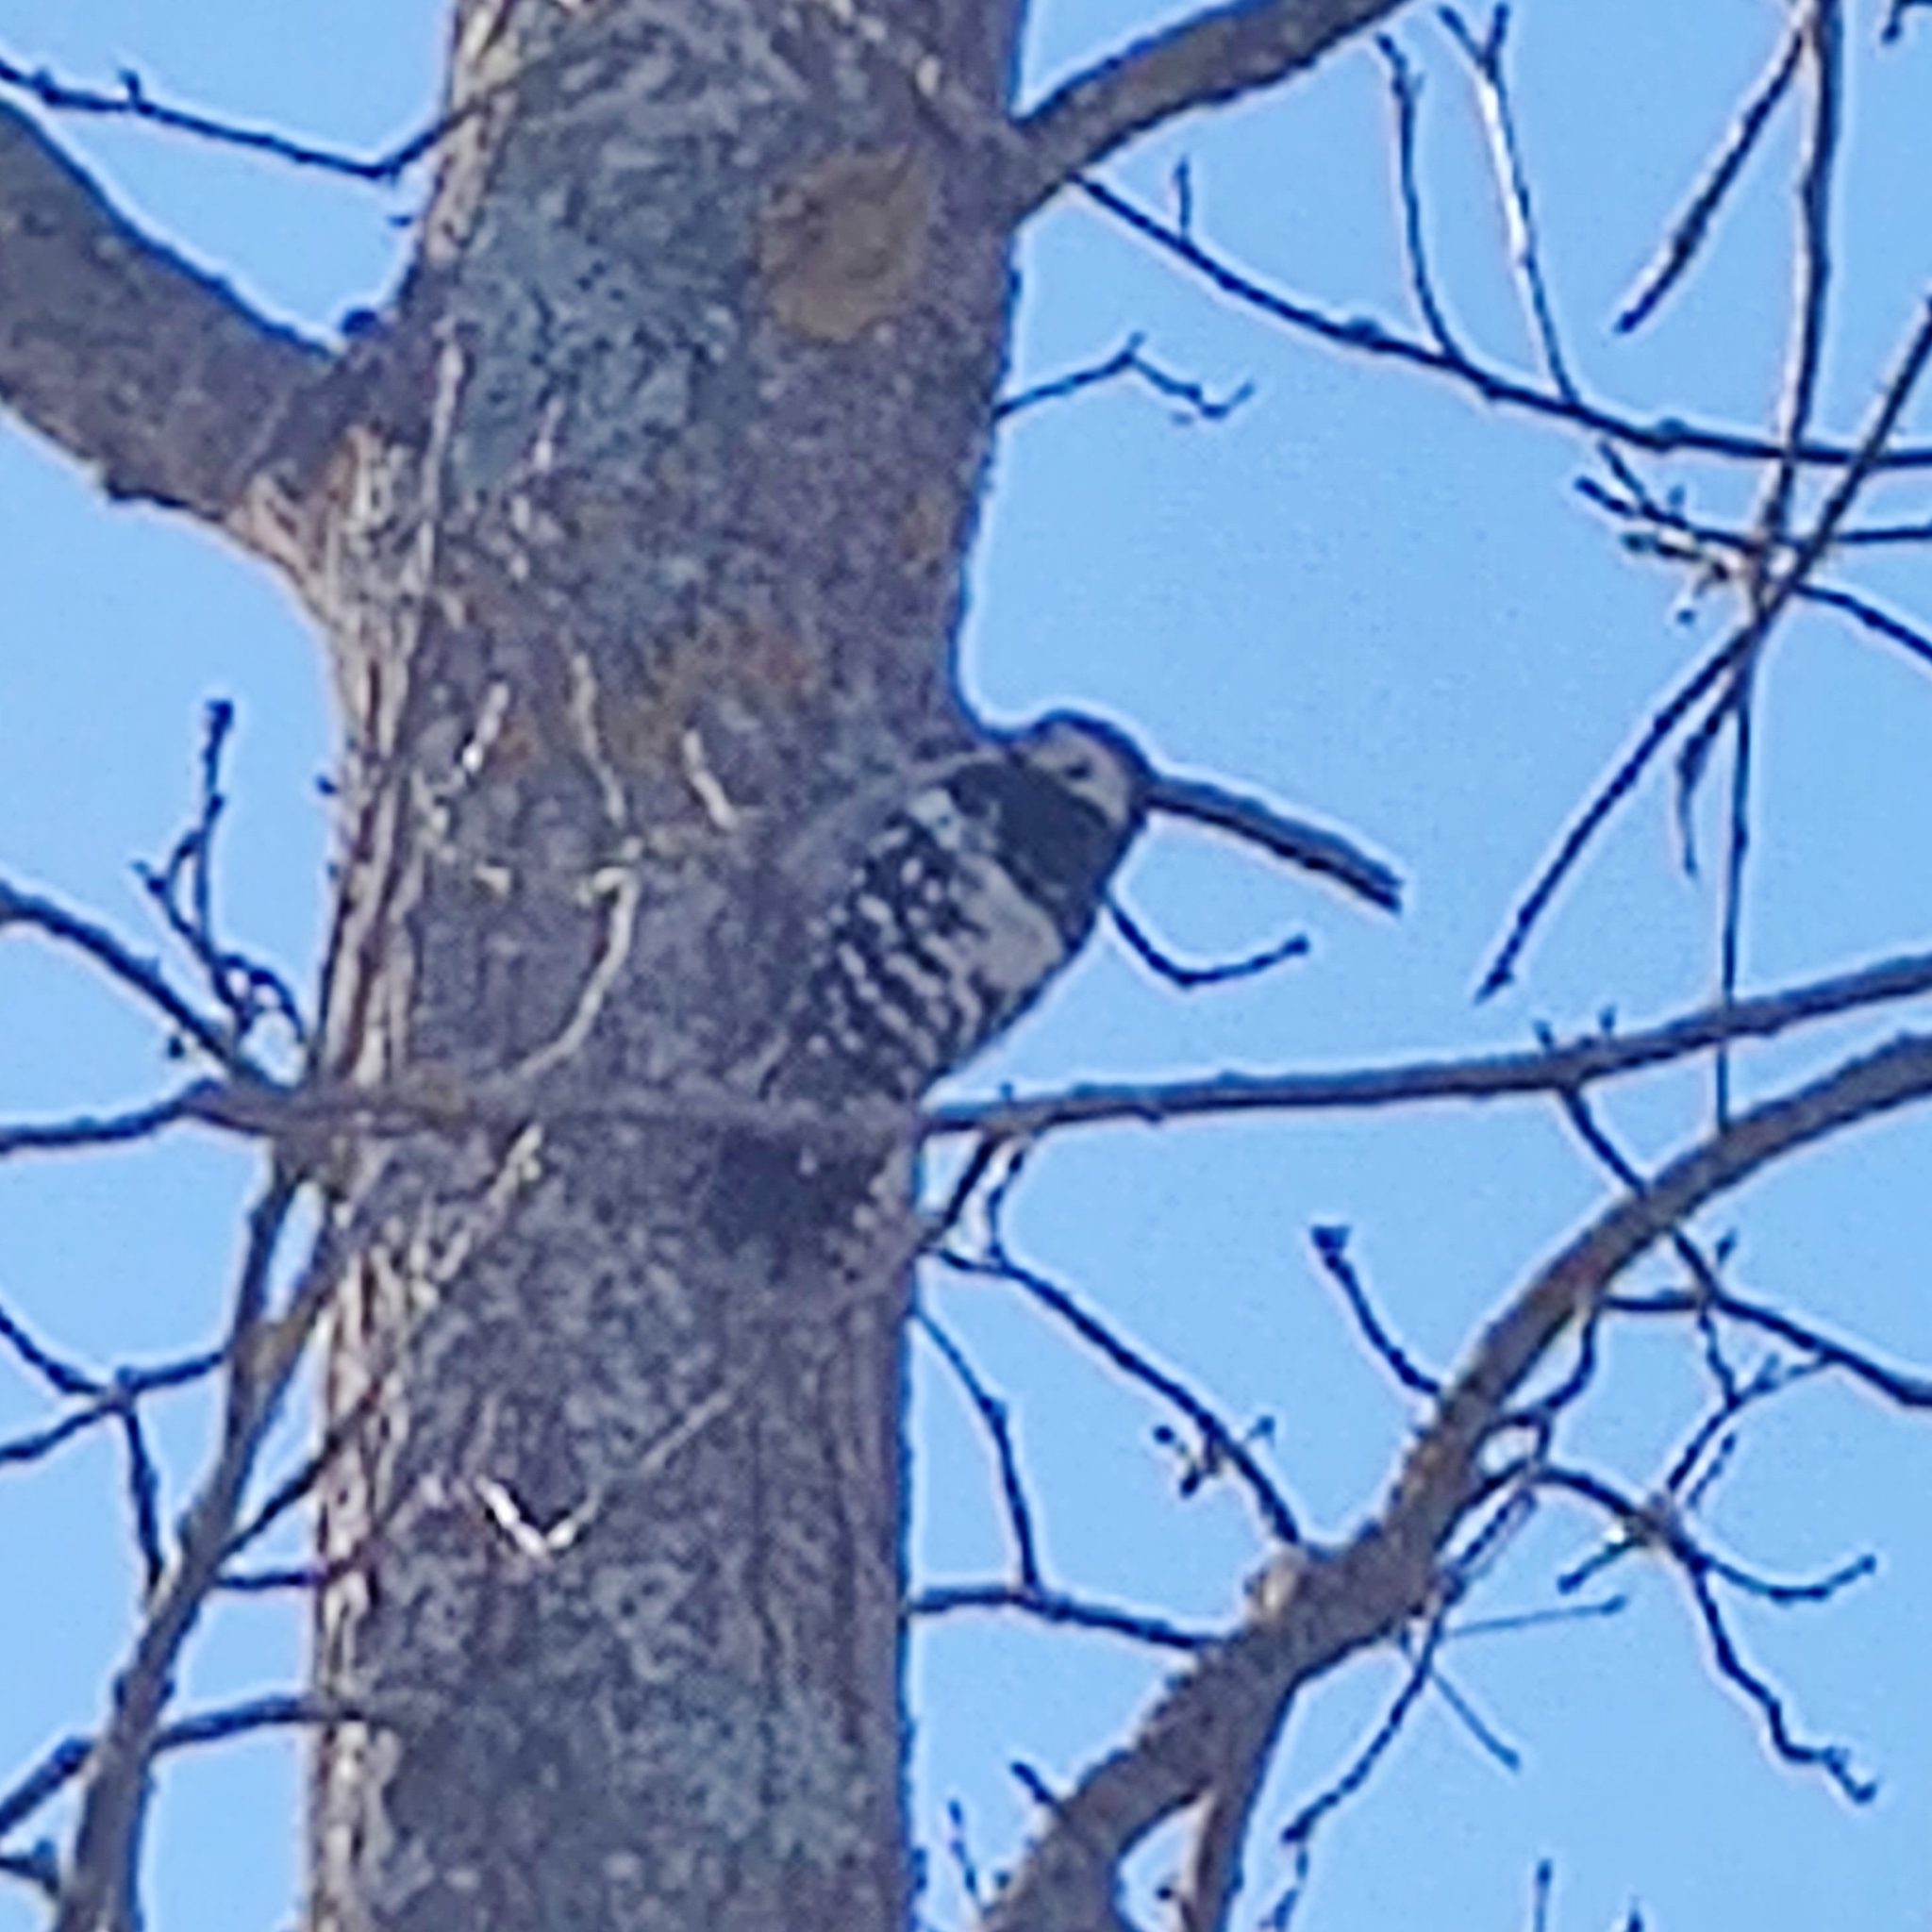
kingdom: Animalia
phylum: Chordata
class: Aves
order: Piciformes
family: Picidae
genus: Dendrocopos
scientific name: Dendrocopos leucotos
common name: White-backed woodpecker
